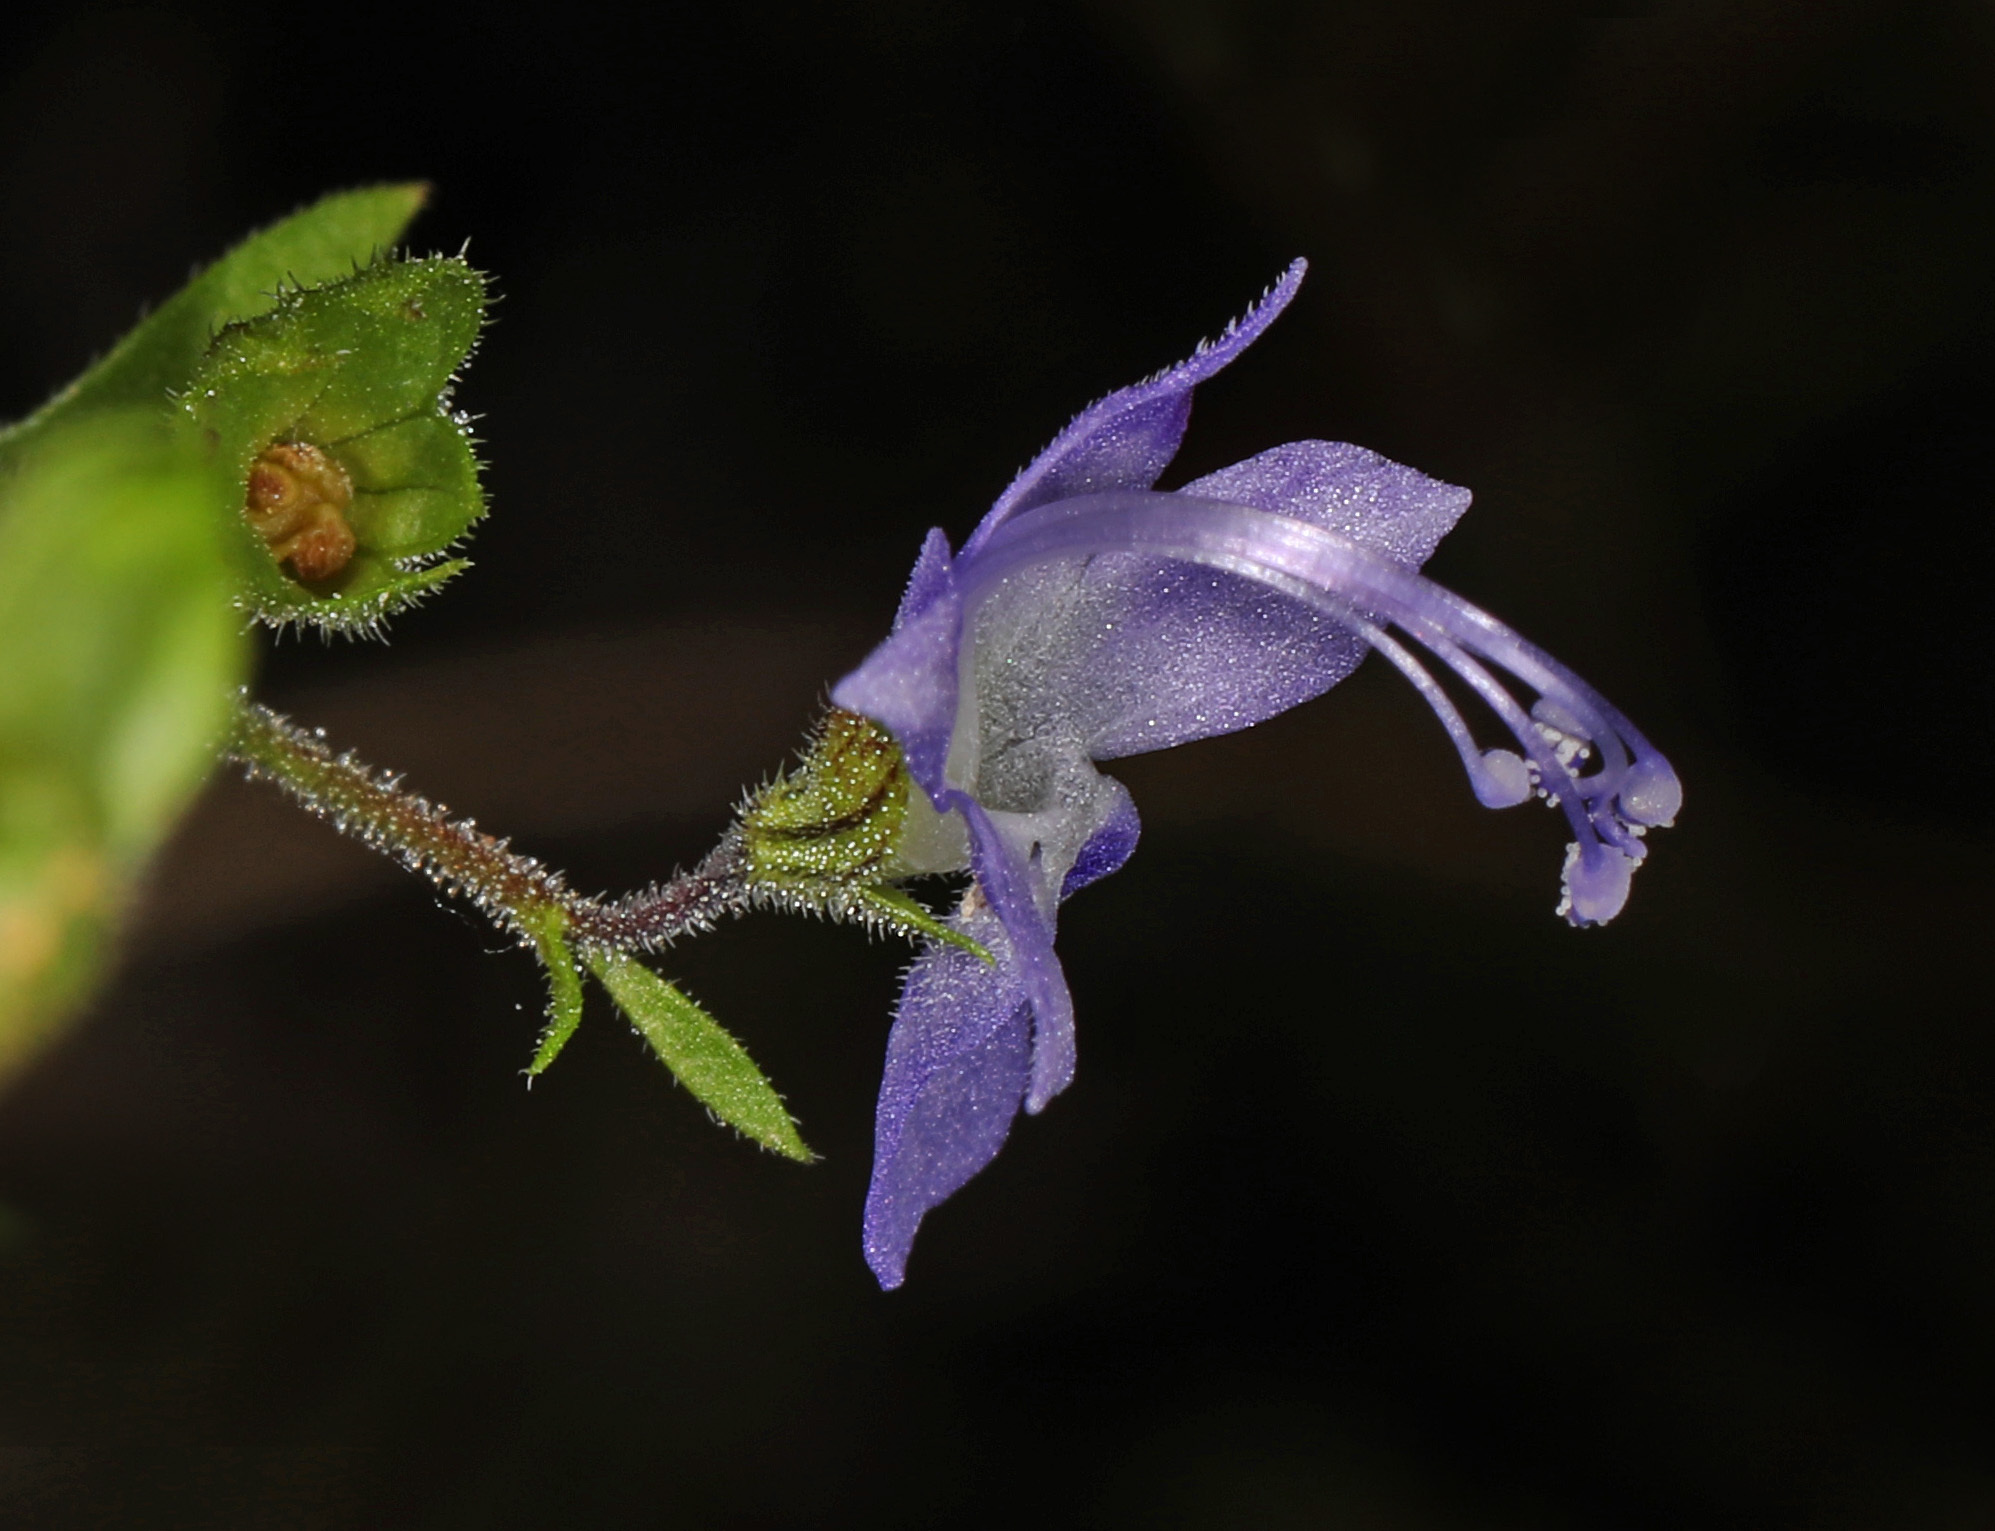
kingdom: Plantae
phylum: Tracheophyta
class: Magnoliopsida
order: Lamiales
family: Lamiaceae
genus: Trichostema
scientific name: Trichostema dichotomum
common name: Bastard pennyroyal
